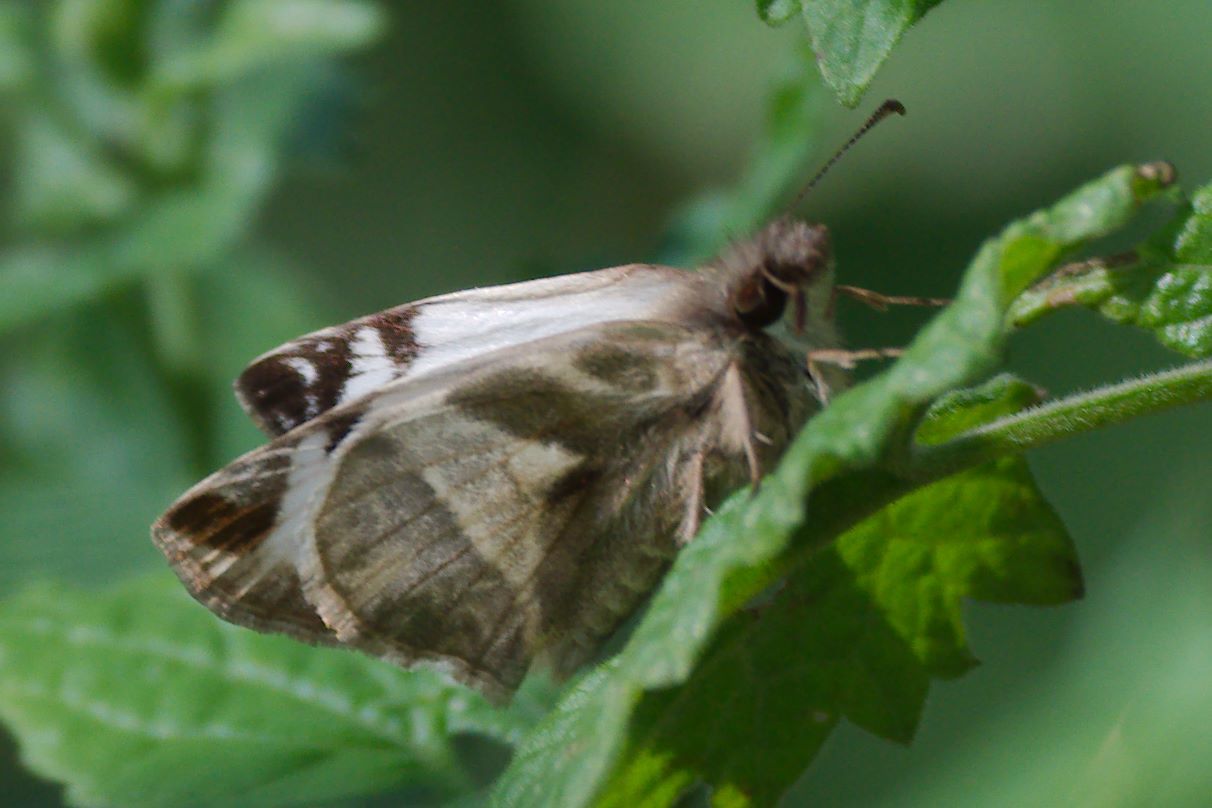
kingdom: Animalia
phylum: Arthropoda
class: Insecta
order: Lepidoptera
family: Hesperiidae
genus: Heliopetes
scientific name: Heliopetes laviana
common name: Laviana white-skipper
